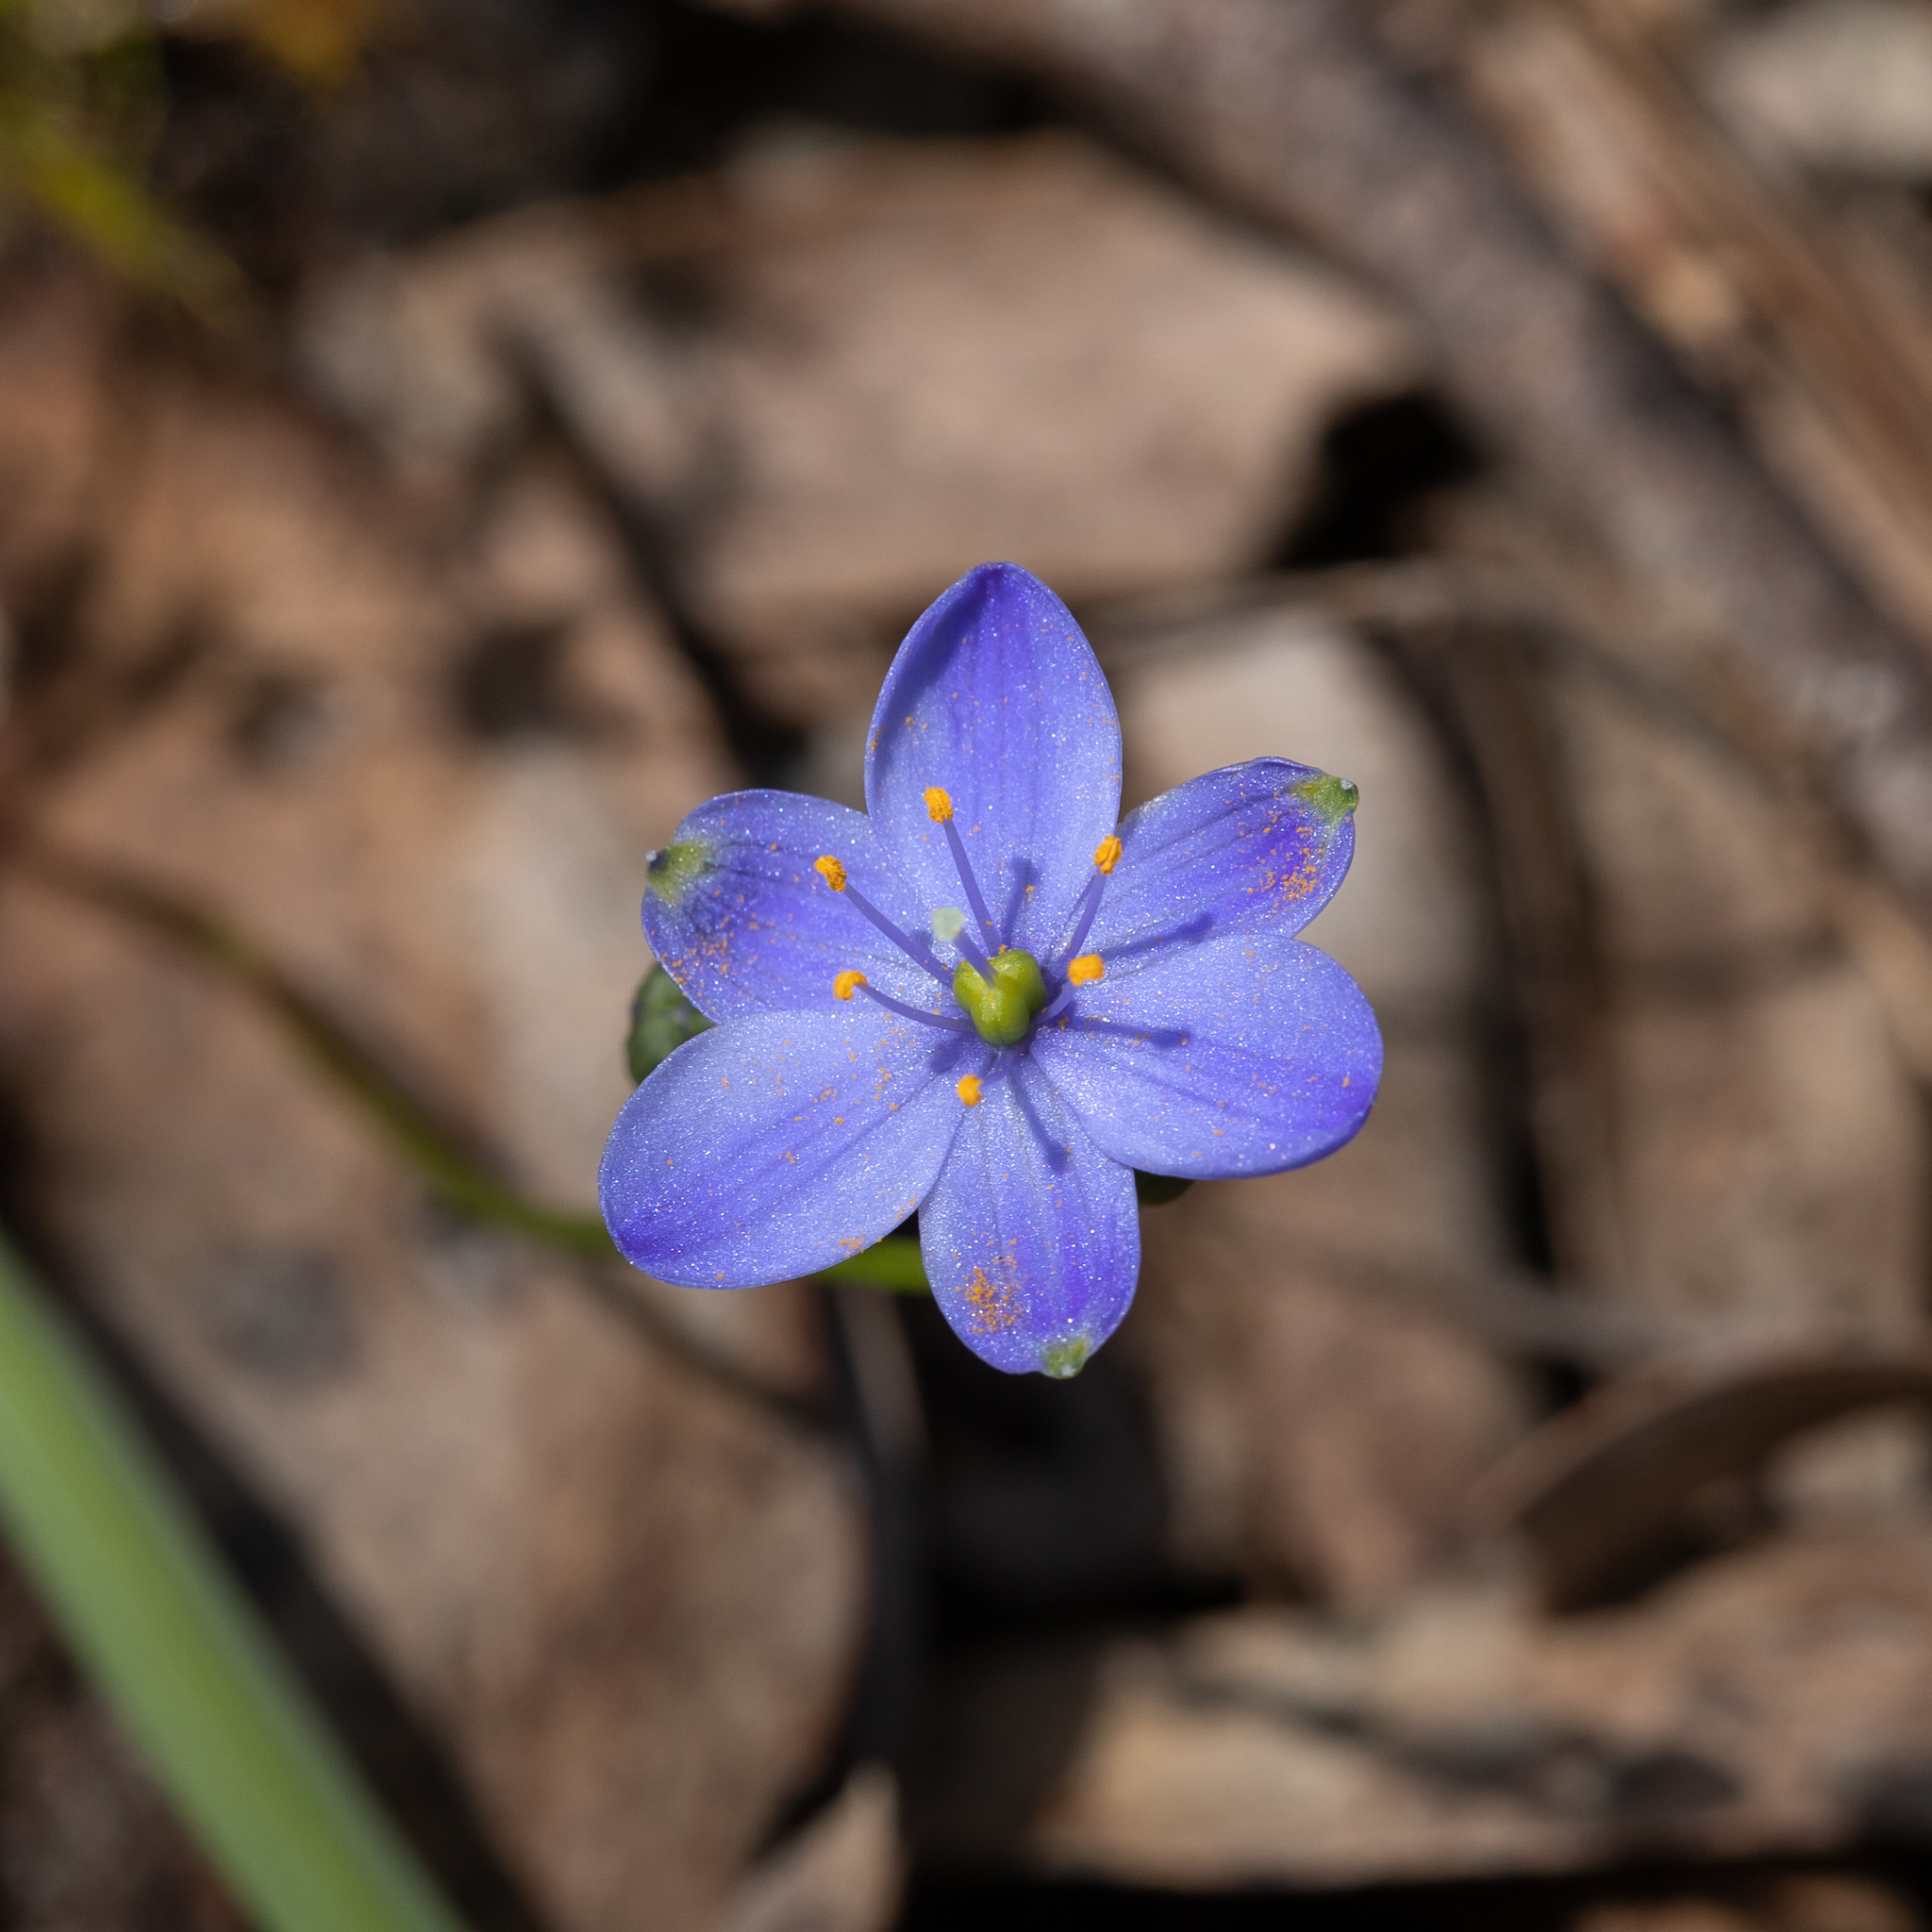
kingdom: Plantae
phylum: Tracheophyta
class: Liliopsida
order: Asparagales
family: Asphodelaceae
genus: Chamaescilla
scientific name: Chamaescilla corymbosa
